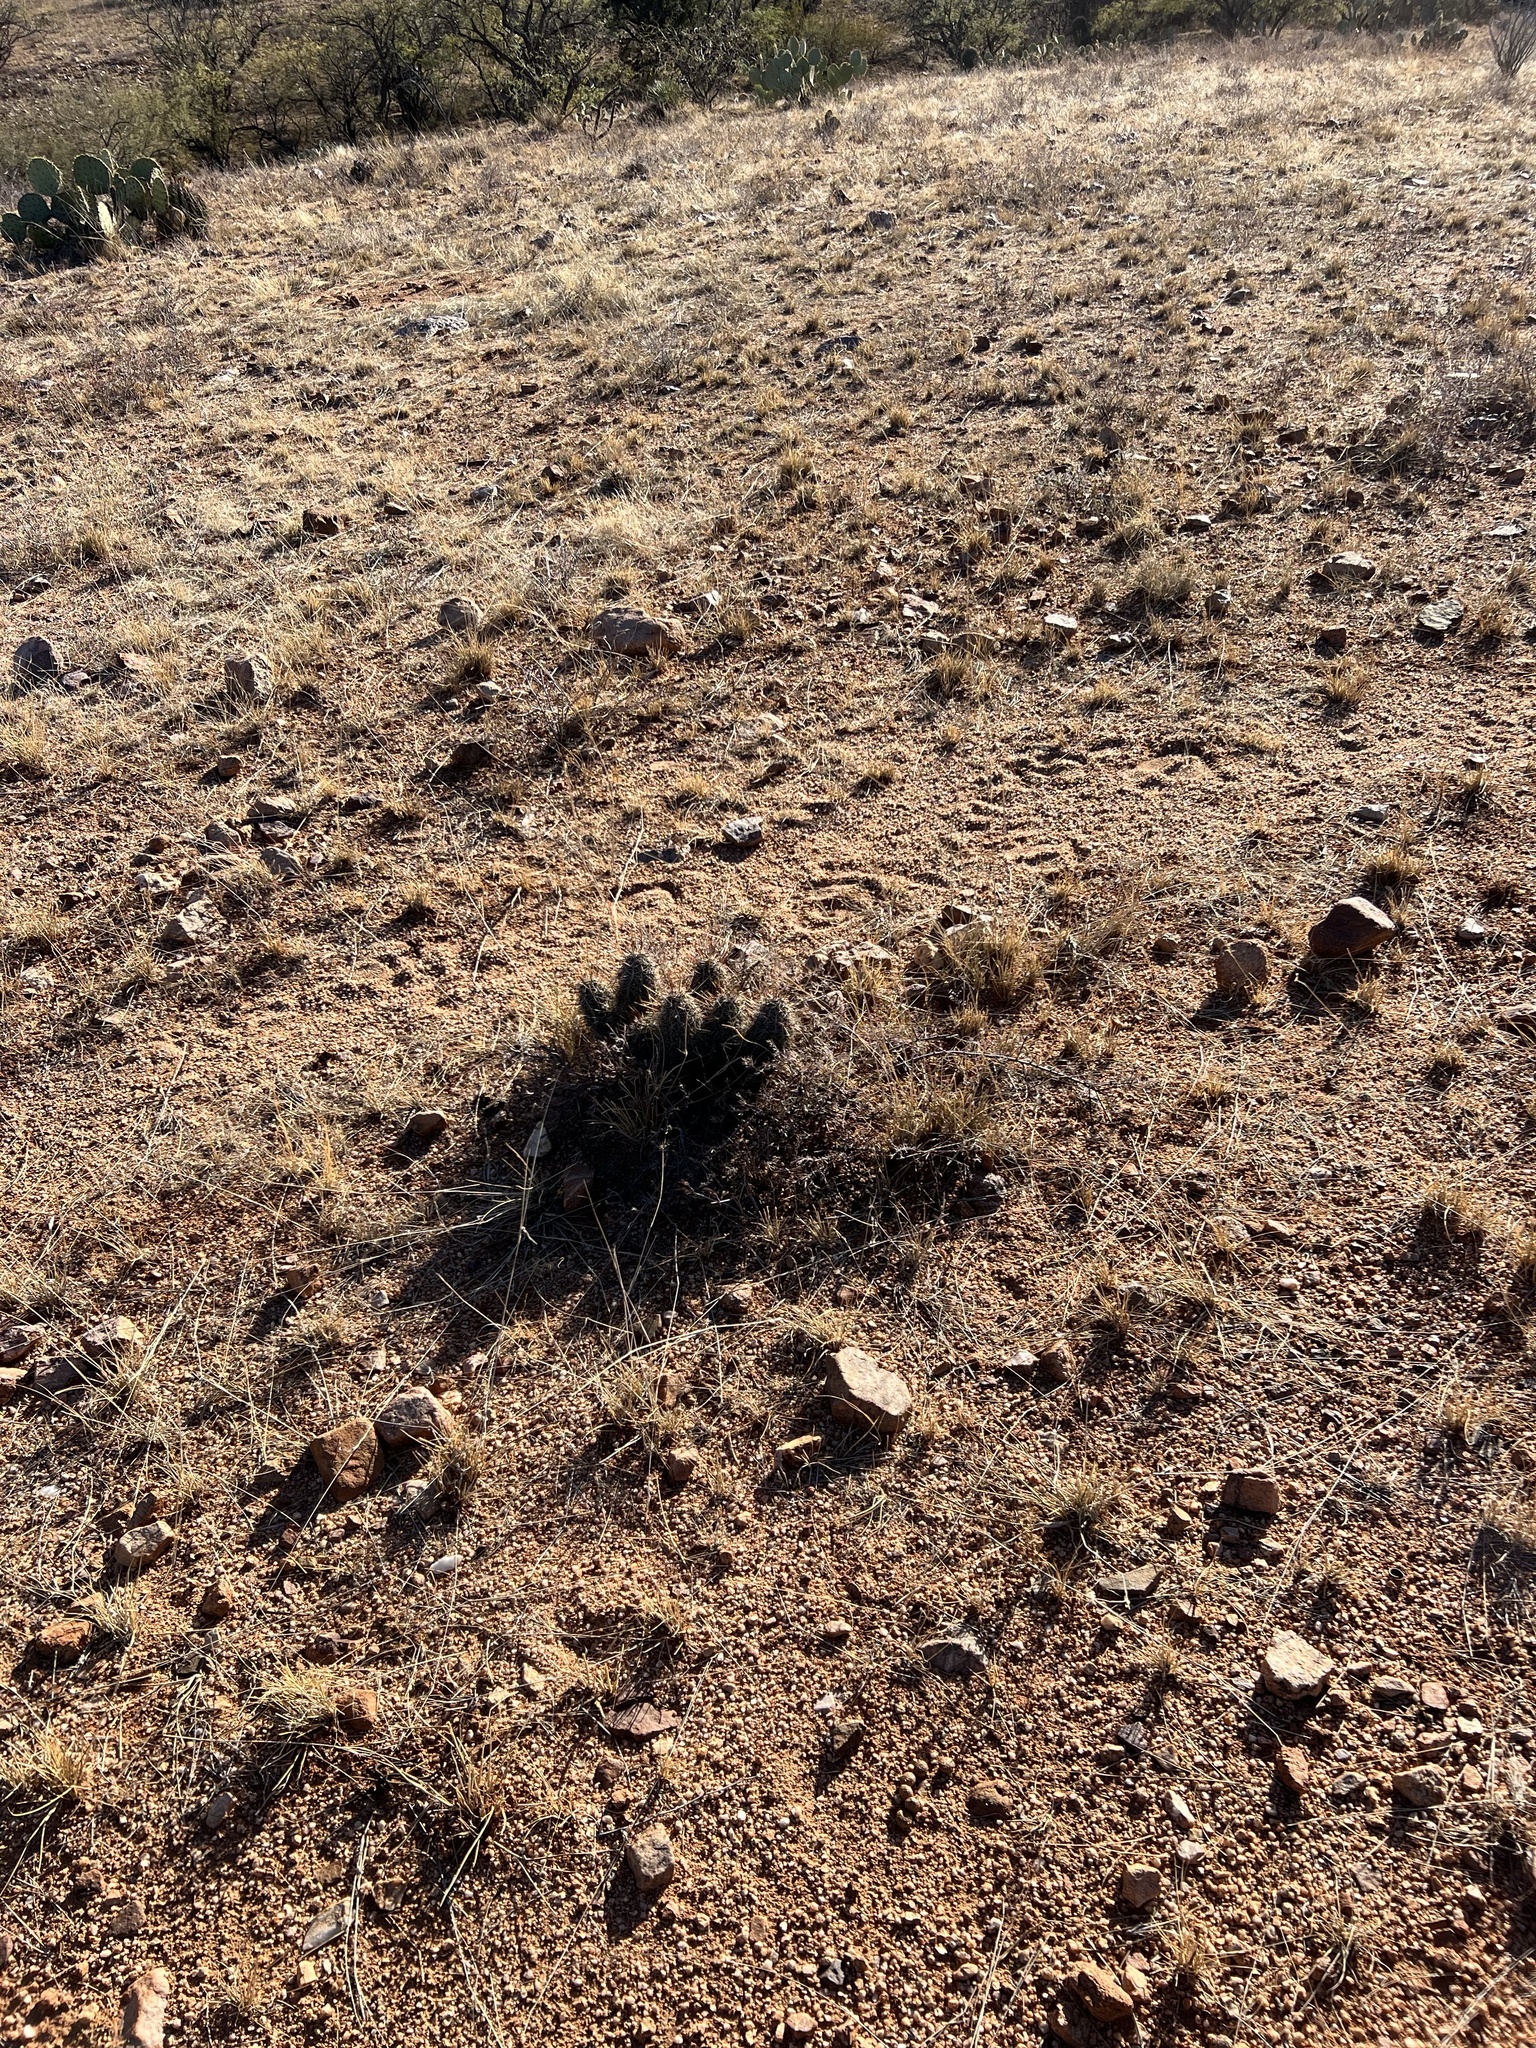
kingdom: Plantae
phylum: Tracheophyta
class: Magnoliopsida
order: Caryophyllales
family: Cactaceae
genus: Echinocereus
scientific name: Echinocereus fasciculatus
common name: Bundle hedgehog
